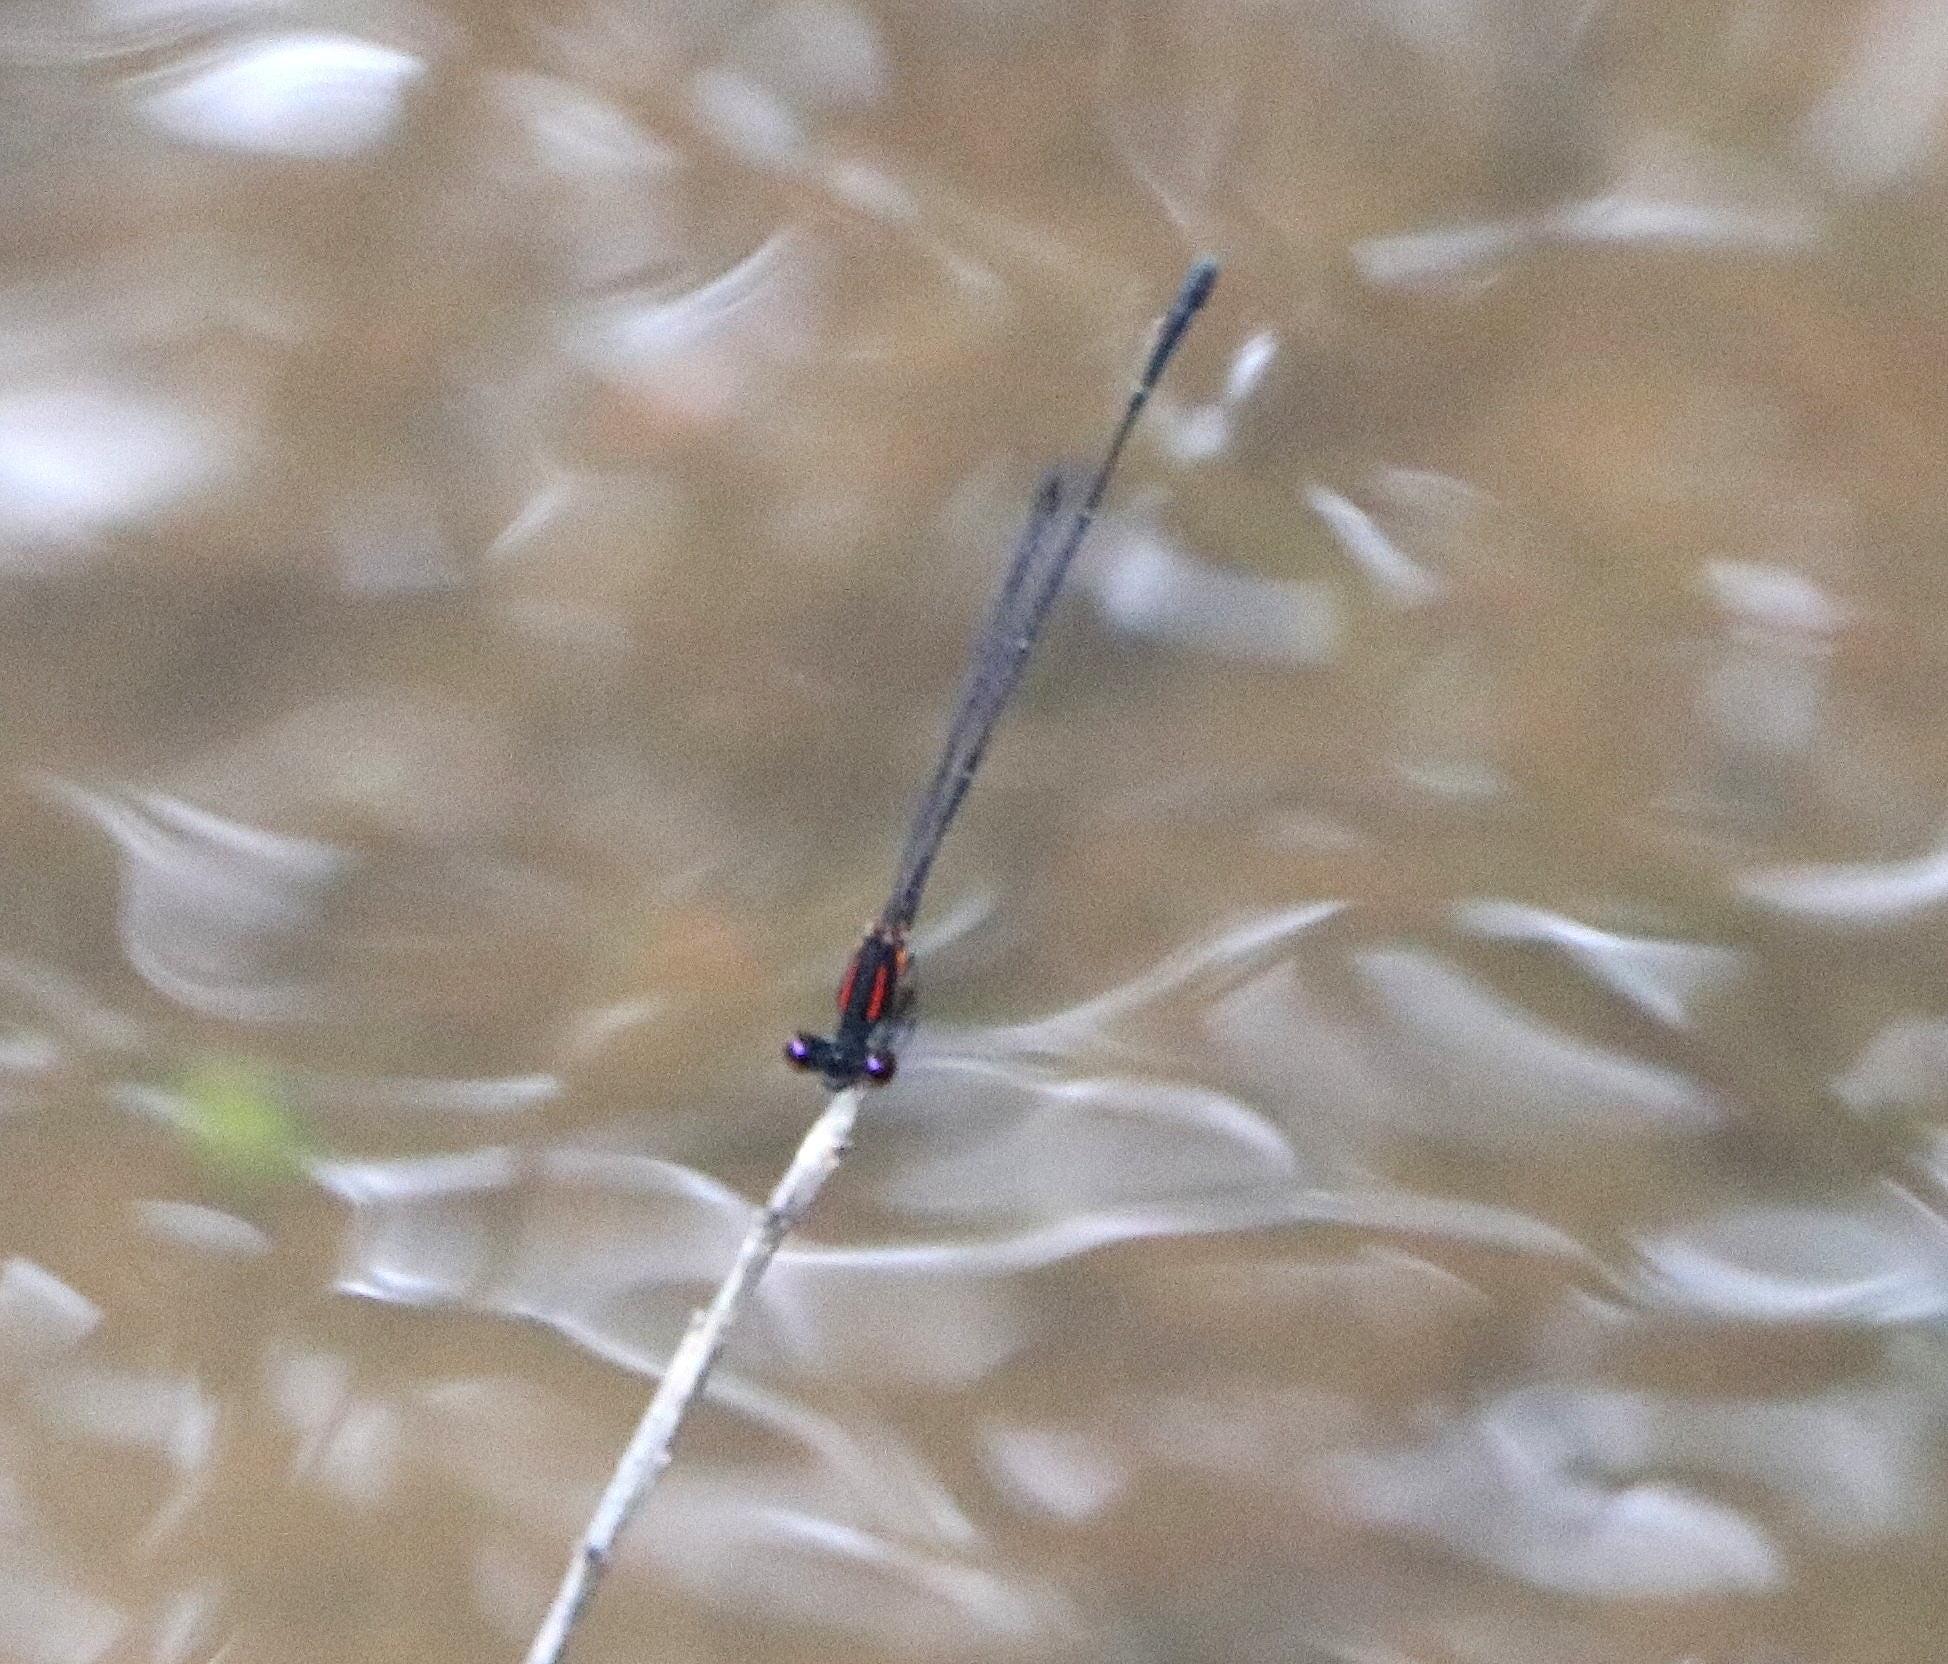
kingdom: Animalia
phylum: Arthropoda
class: Insecta
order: Odonata
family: Platycnemididae
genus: Prodasineura
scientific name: Prodasineura verticalis
